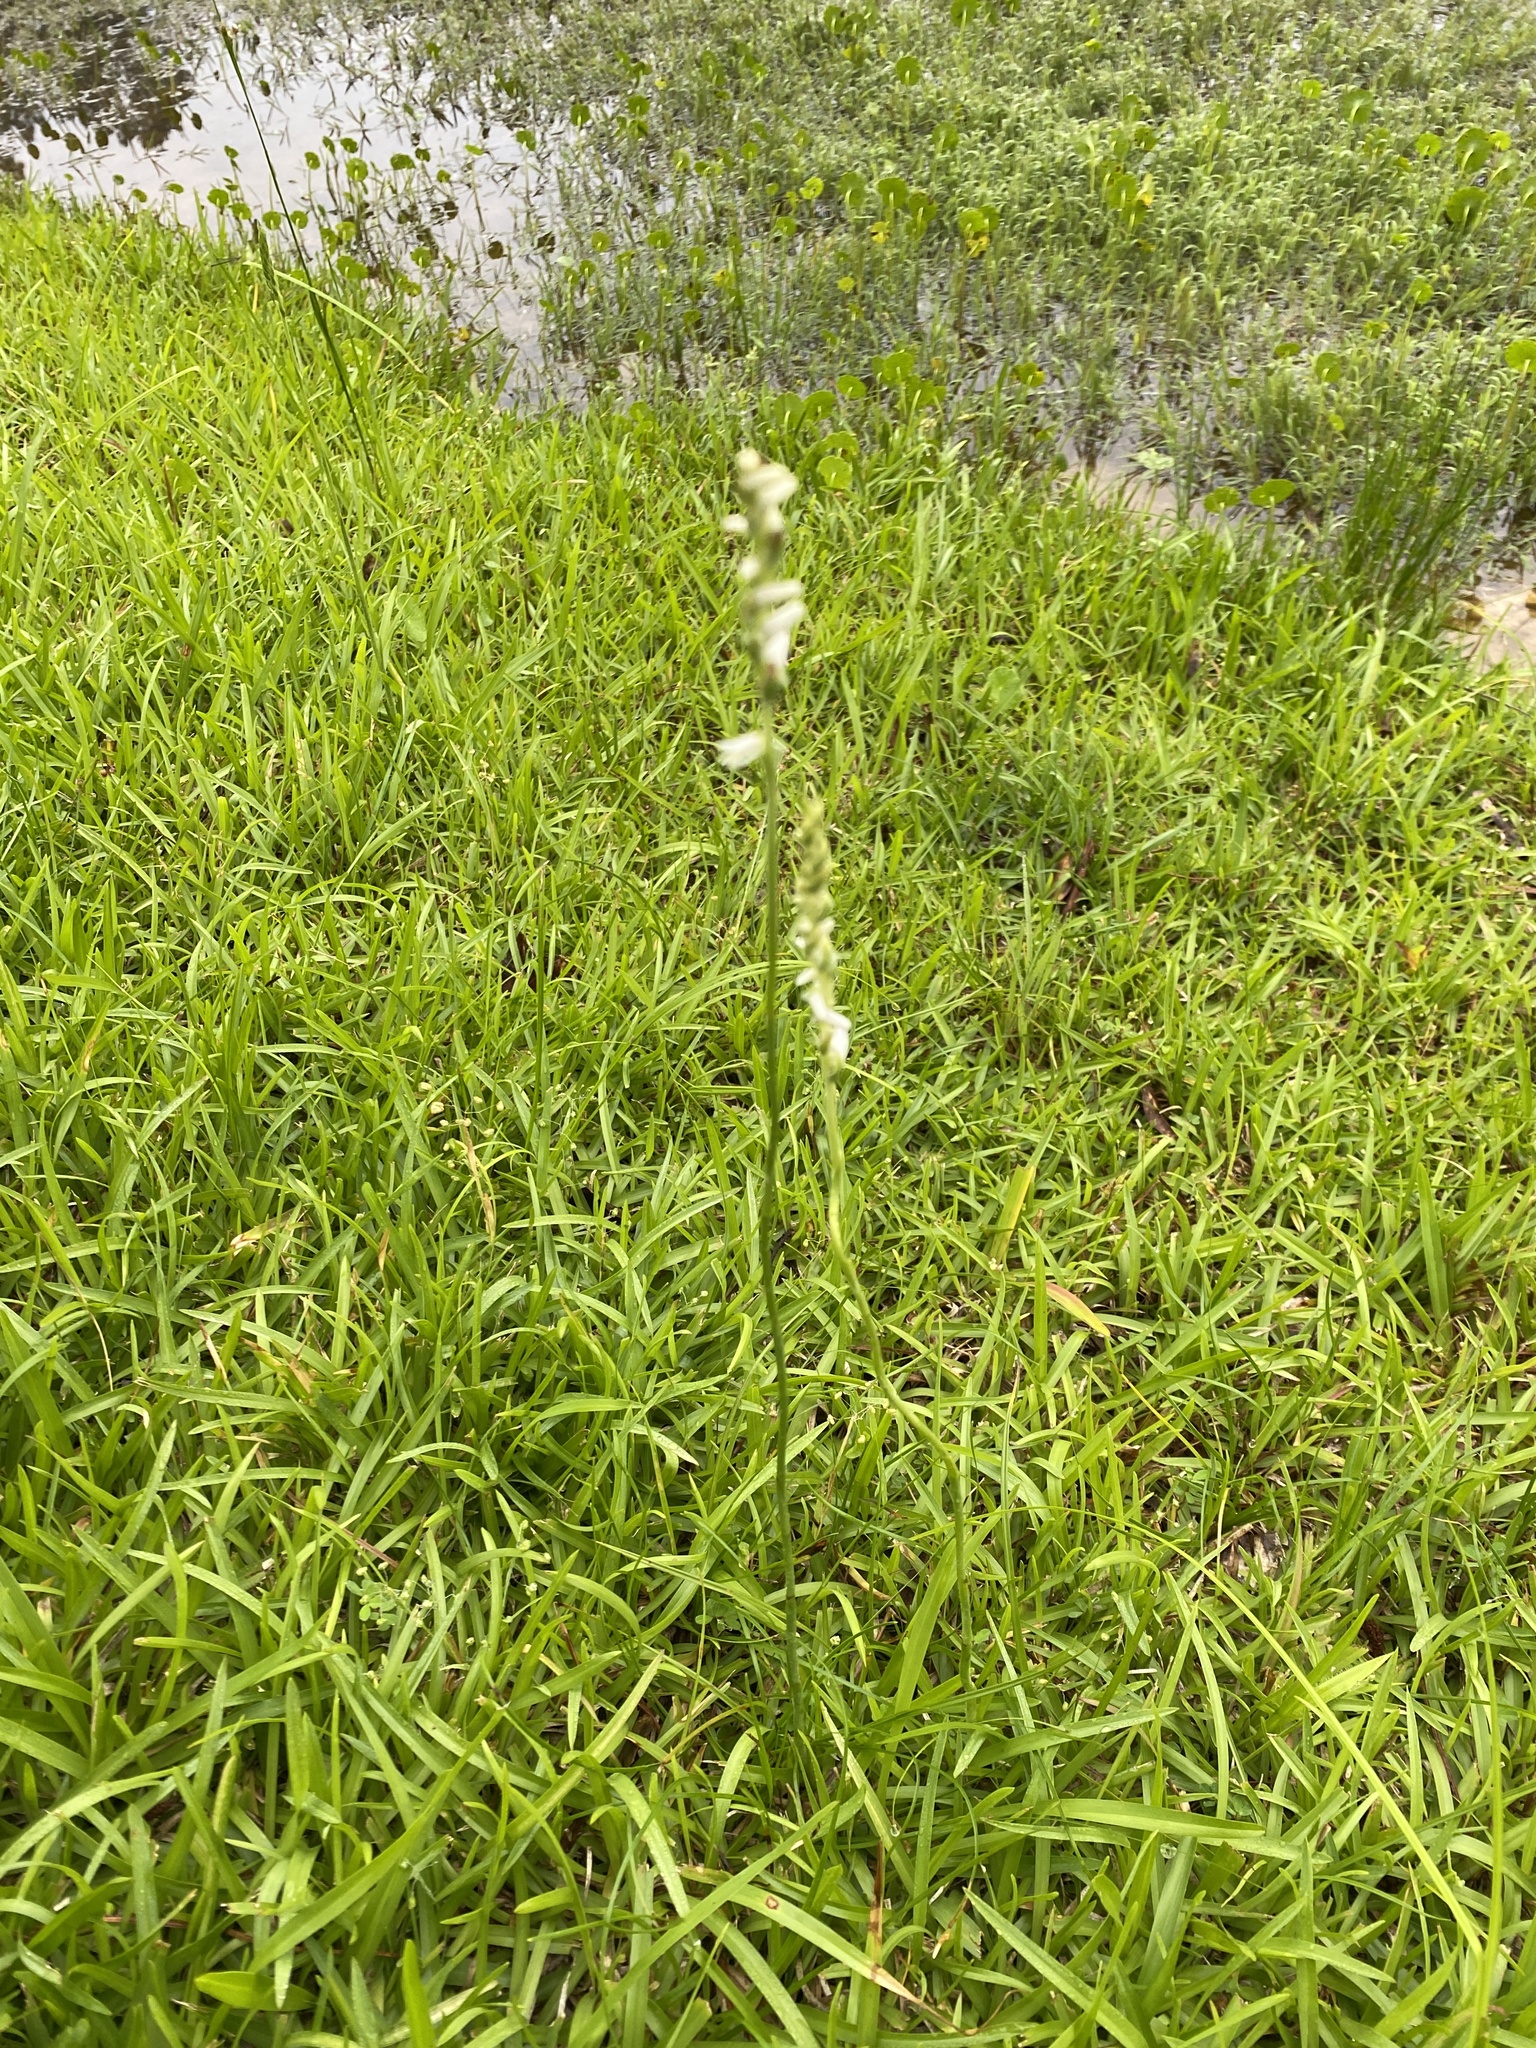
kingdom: Plantae
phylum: Tracheophyta
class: Liliopsida
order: Asparagales
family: Orchidaceae
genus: Spiranthes
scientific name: Spiranthes vernalis
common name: Spring ladies'-tresses
